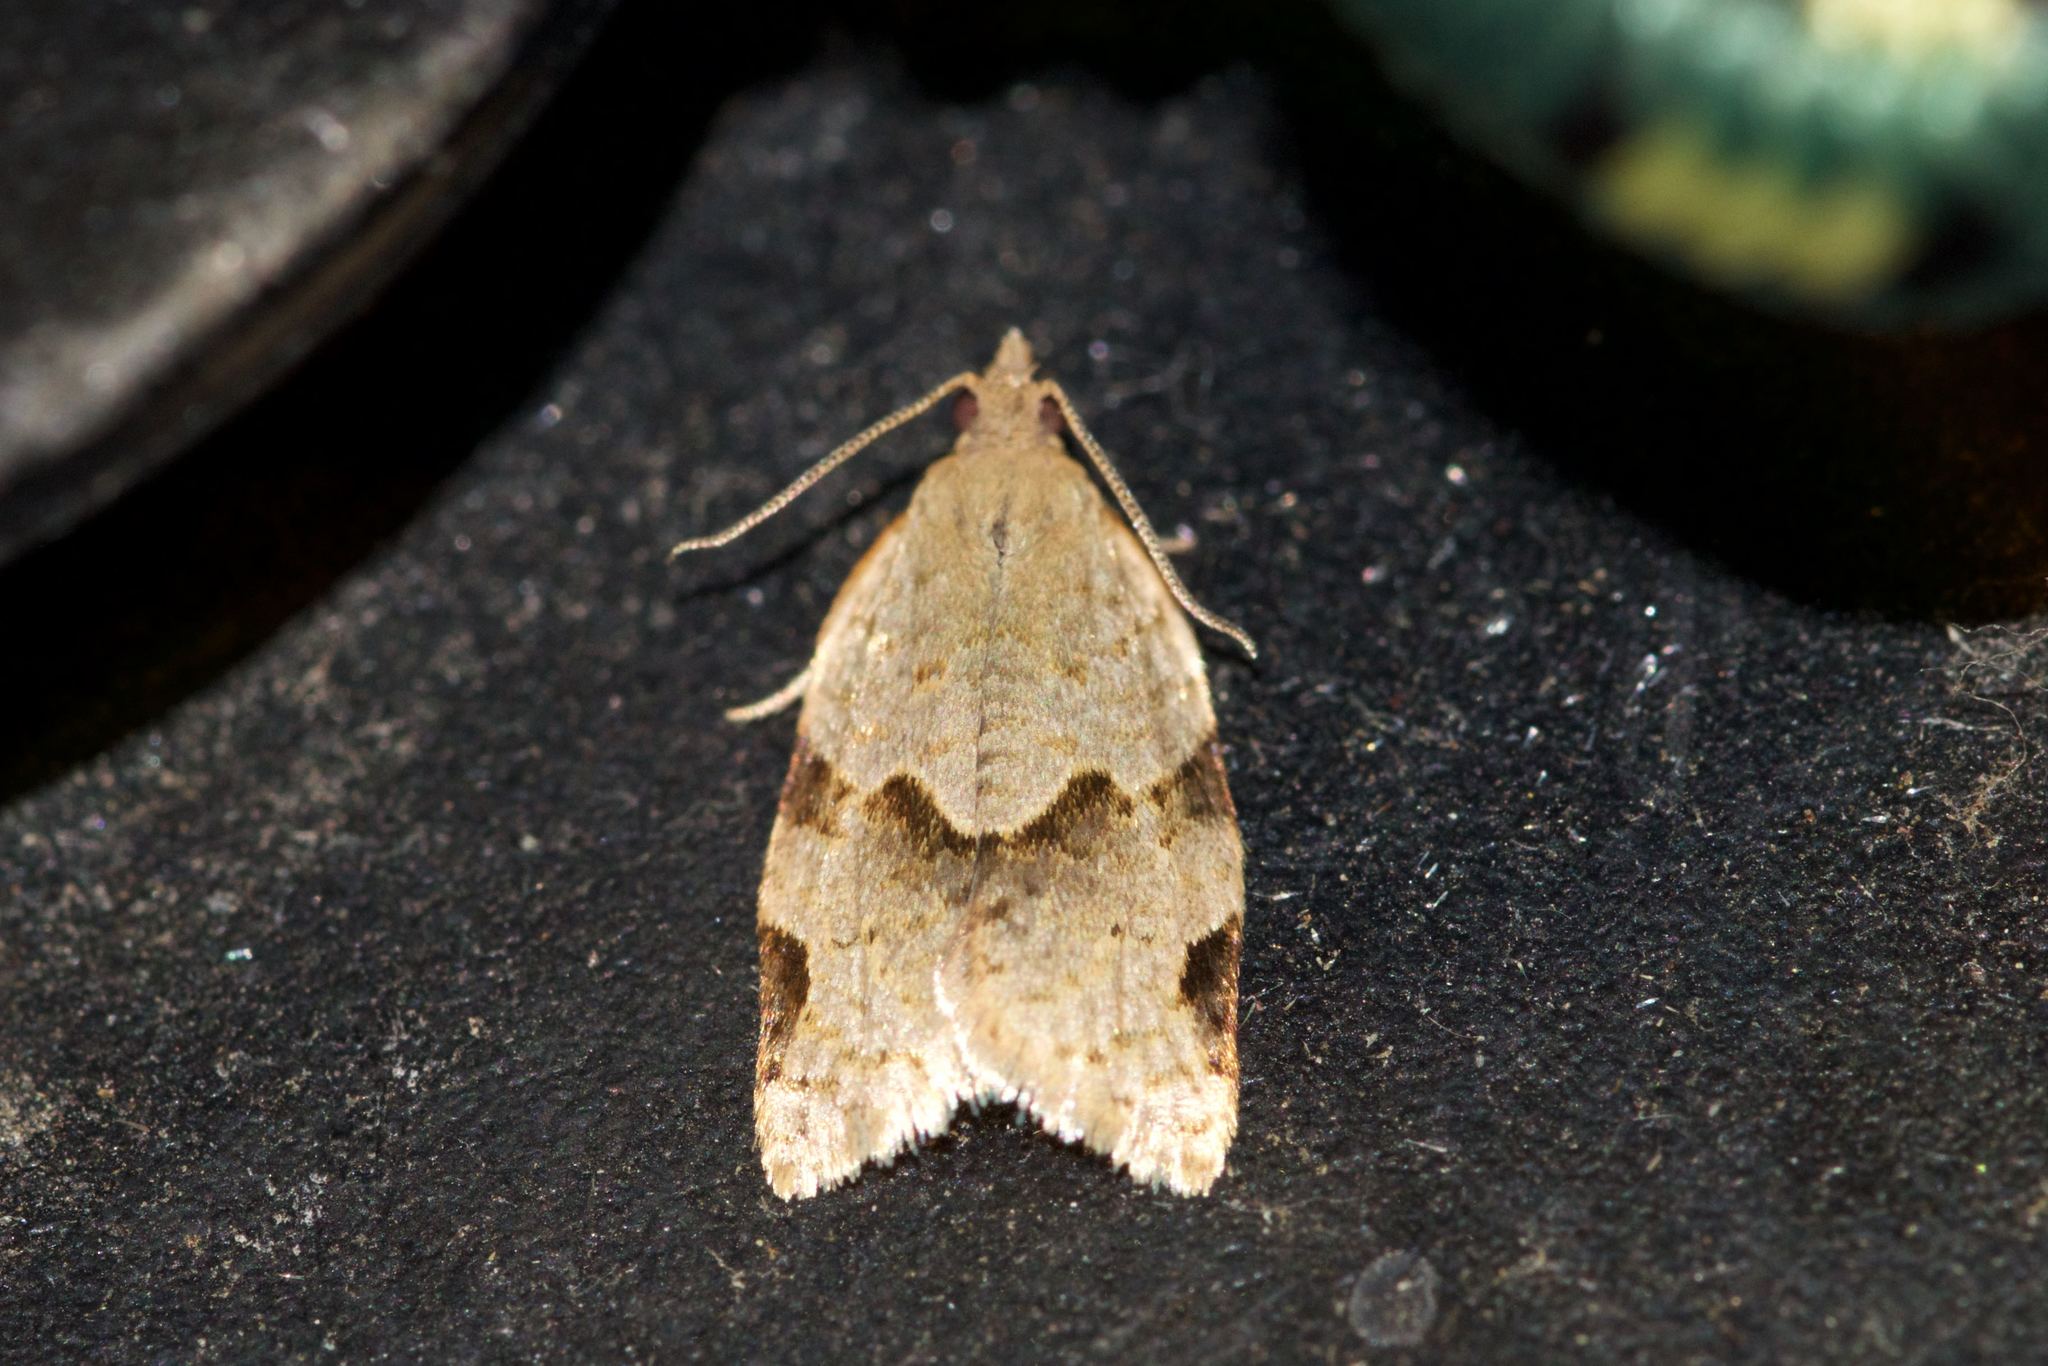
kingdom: Animalia
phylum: Arthropoda
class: Insecta
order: Lepidoptera
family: Tortricidae
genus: Clepsis
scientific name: Clepsis virescana
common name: Greenish apple moth
